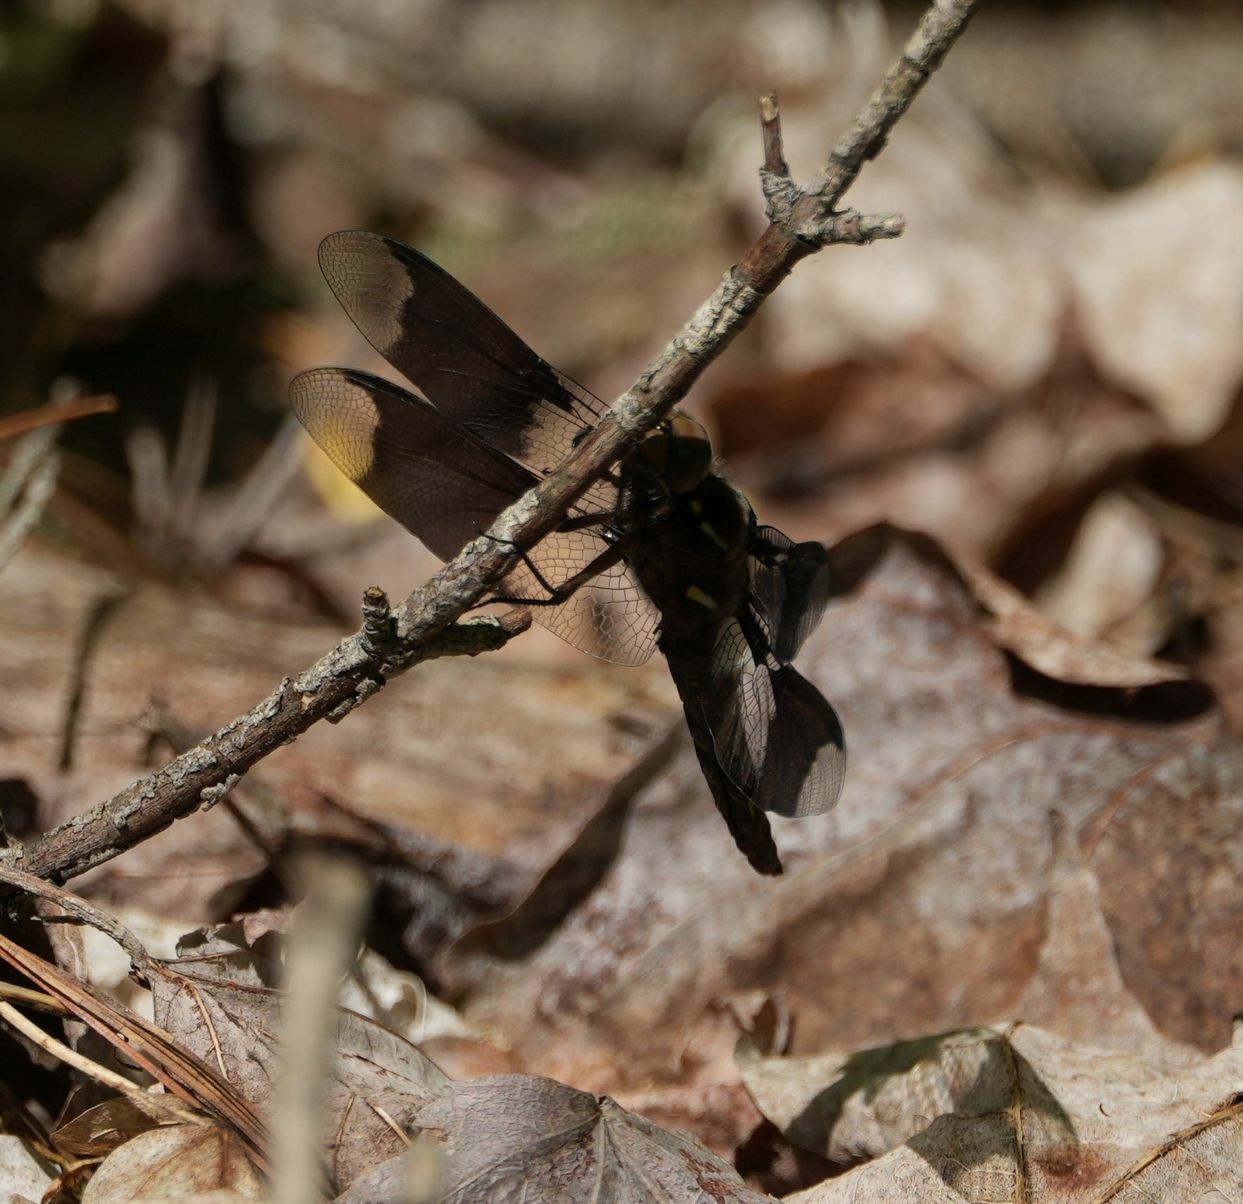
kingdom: Animalia
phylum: Arthropoda
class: Insecta
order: Odonata
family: Libellulidae
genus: Plathemis
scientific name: Plathemis lydia
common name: Common whitetail
